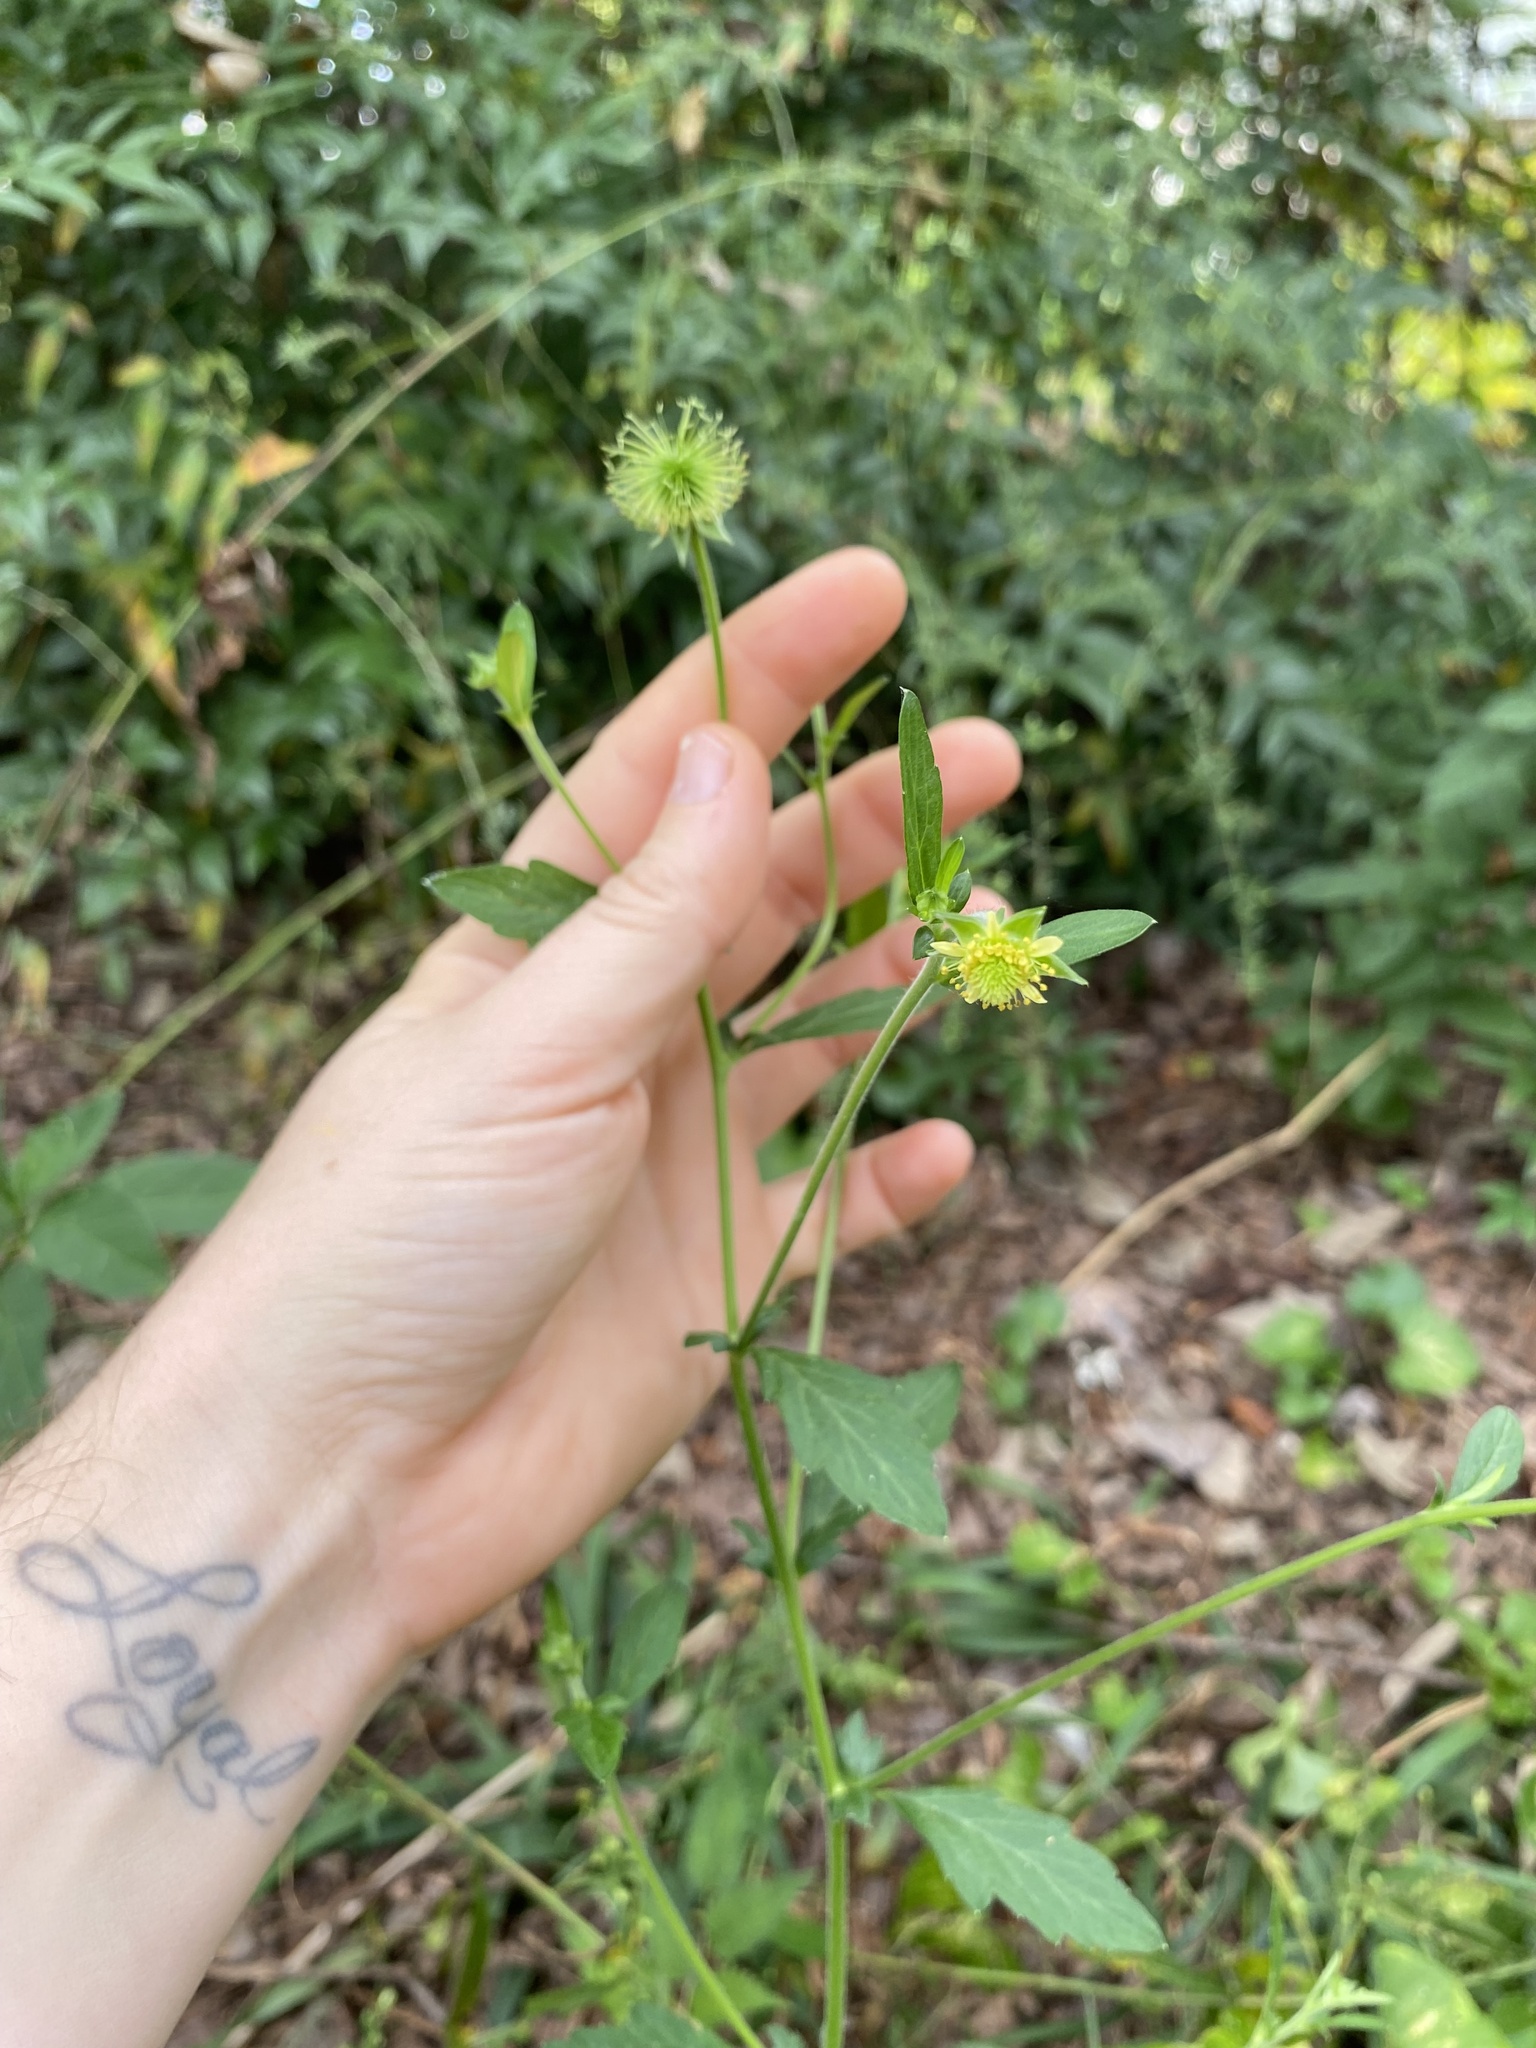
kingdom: Plantae
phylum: Tracheophyta
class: Magnoliopsida
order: Rosales
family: Rosaceae
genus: Geum
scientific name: Geum virginianum
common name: Cream avens
